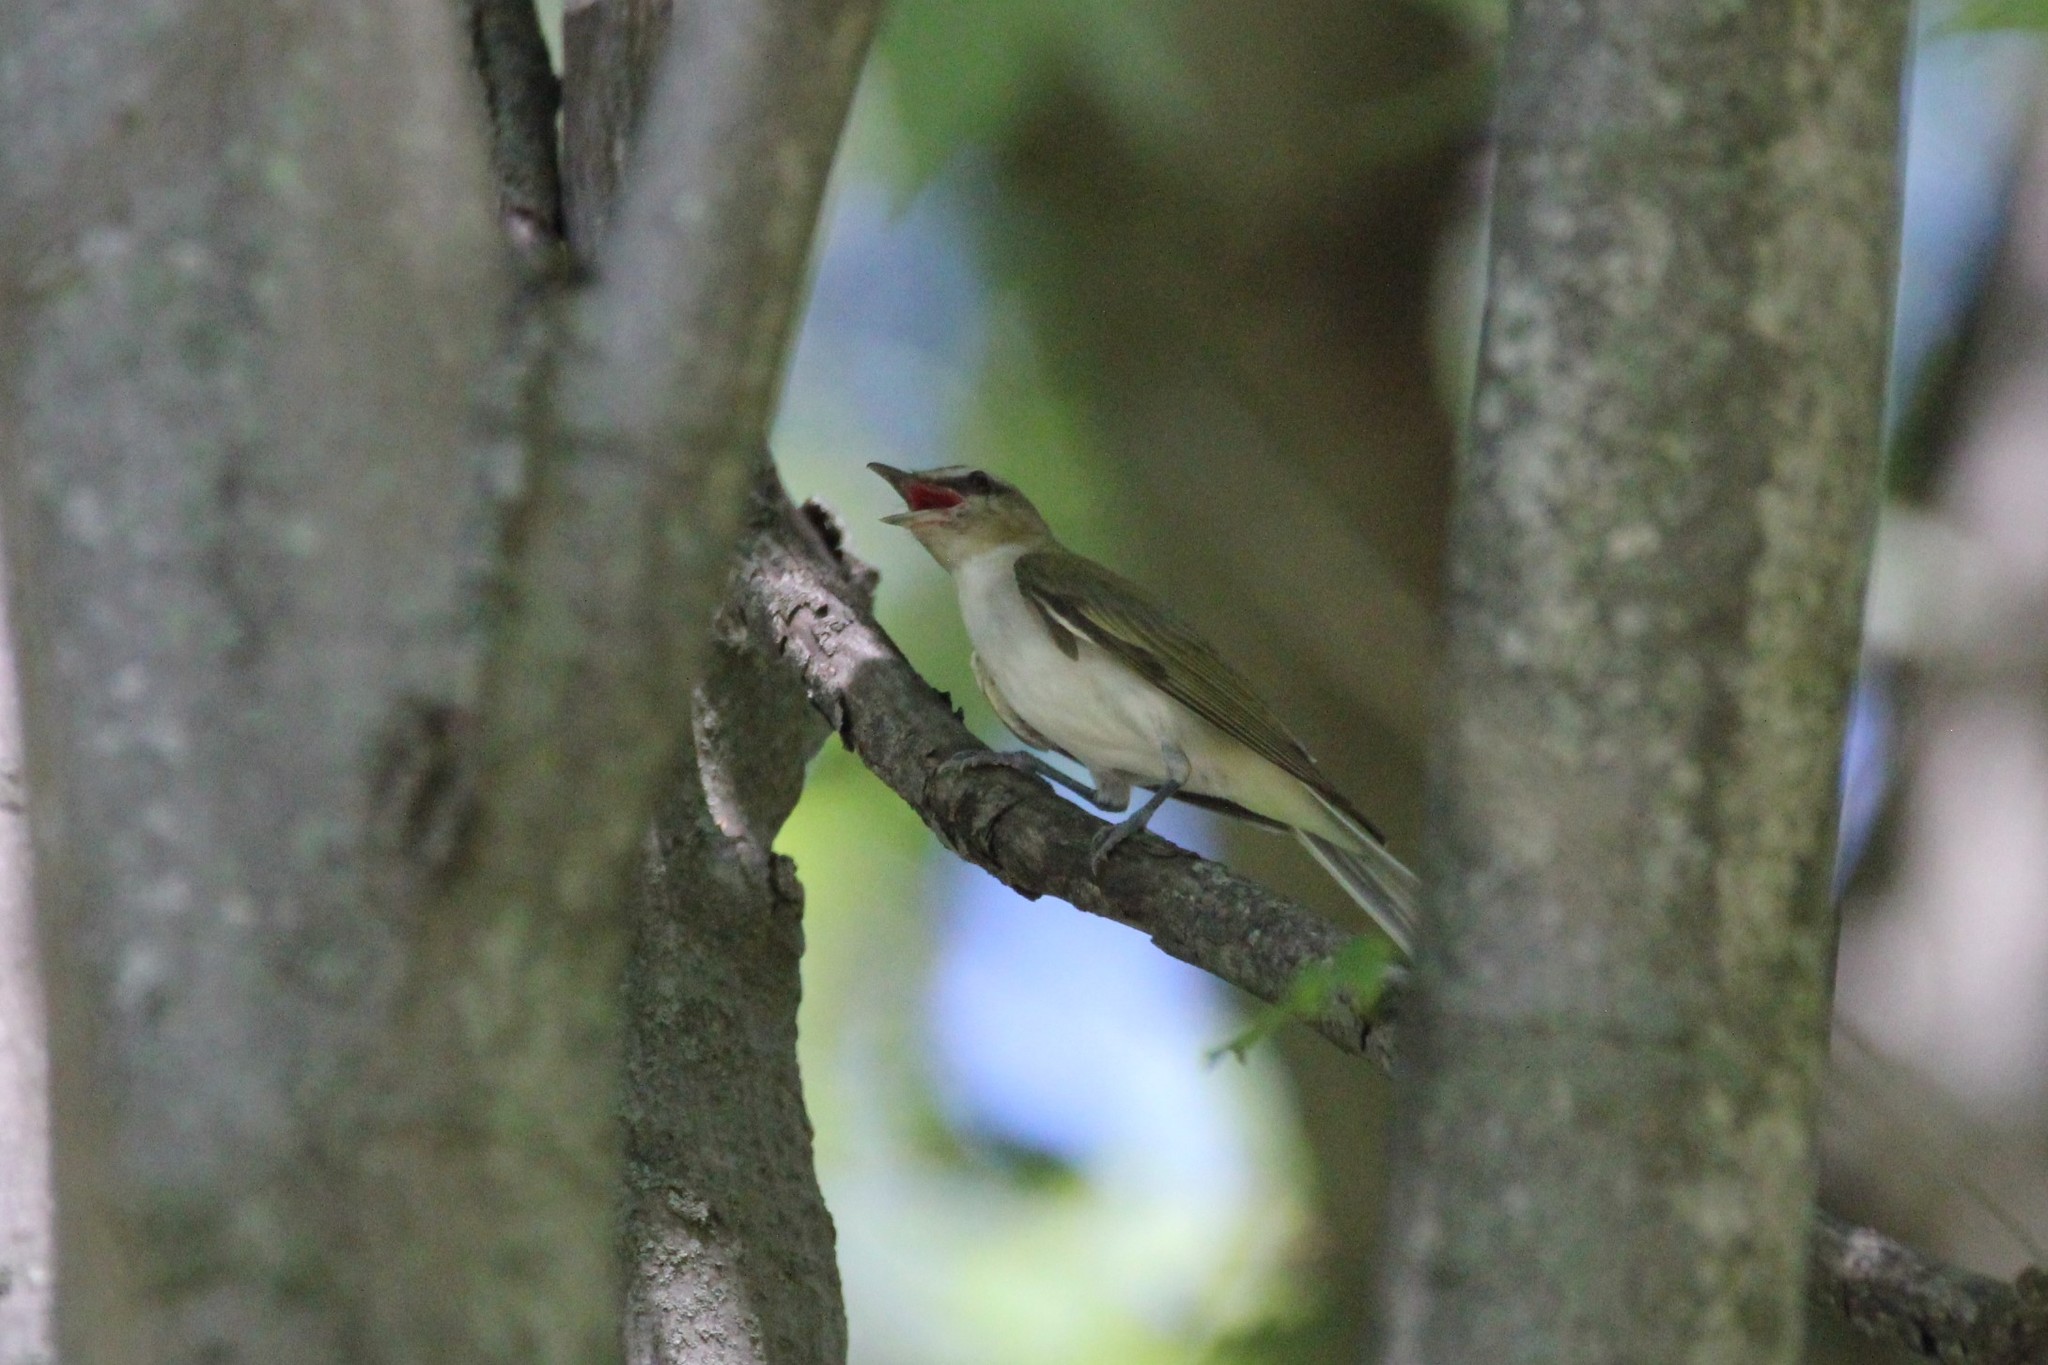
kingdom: Animalia
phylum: Chordata
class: Aves
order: Passeriformes
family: Vireonidae
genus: Vireo
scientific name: Vireo olivaceus
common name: Red-eyed vireo
